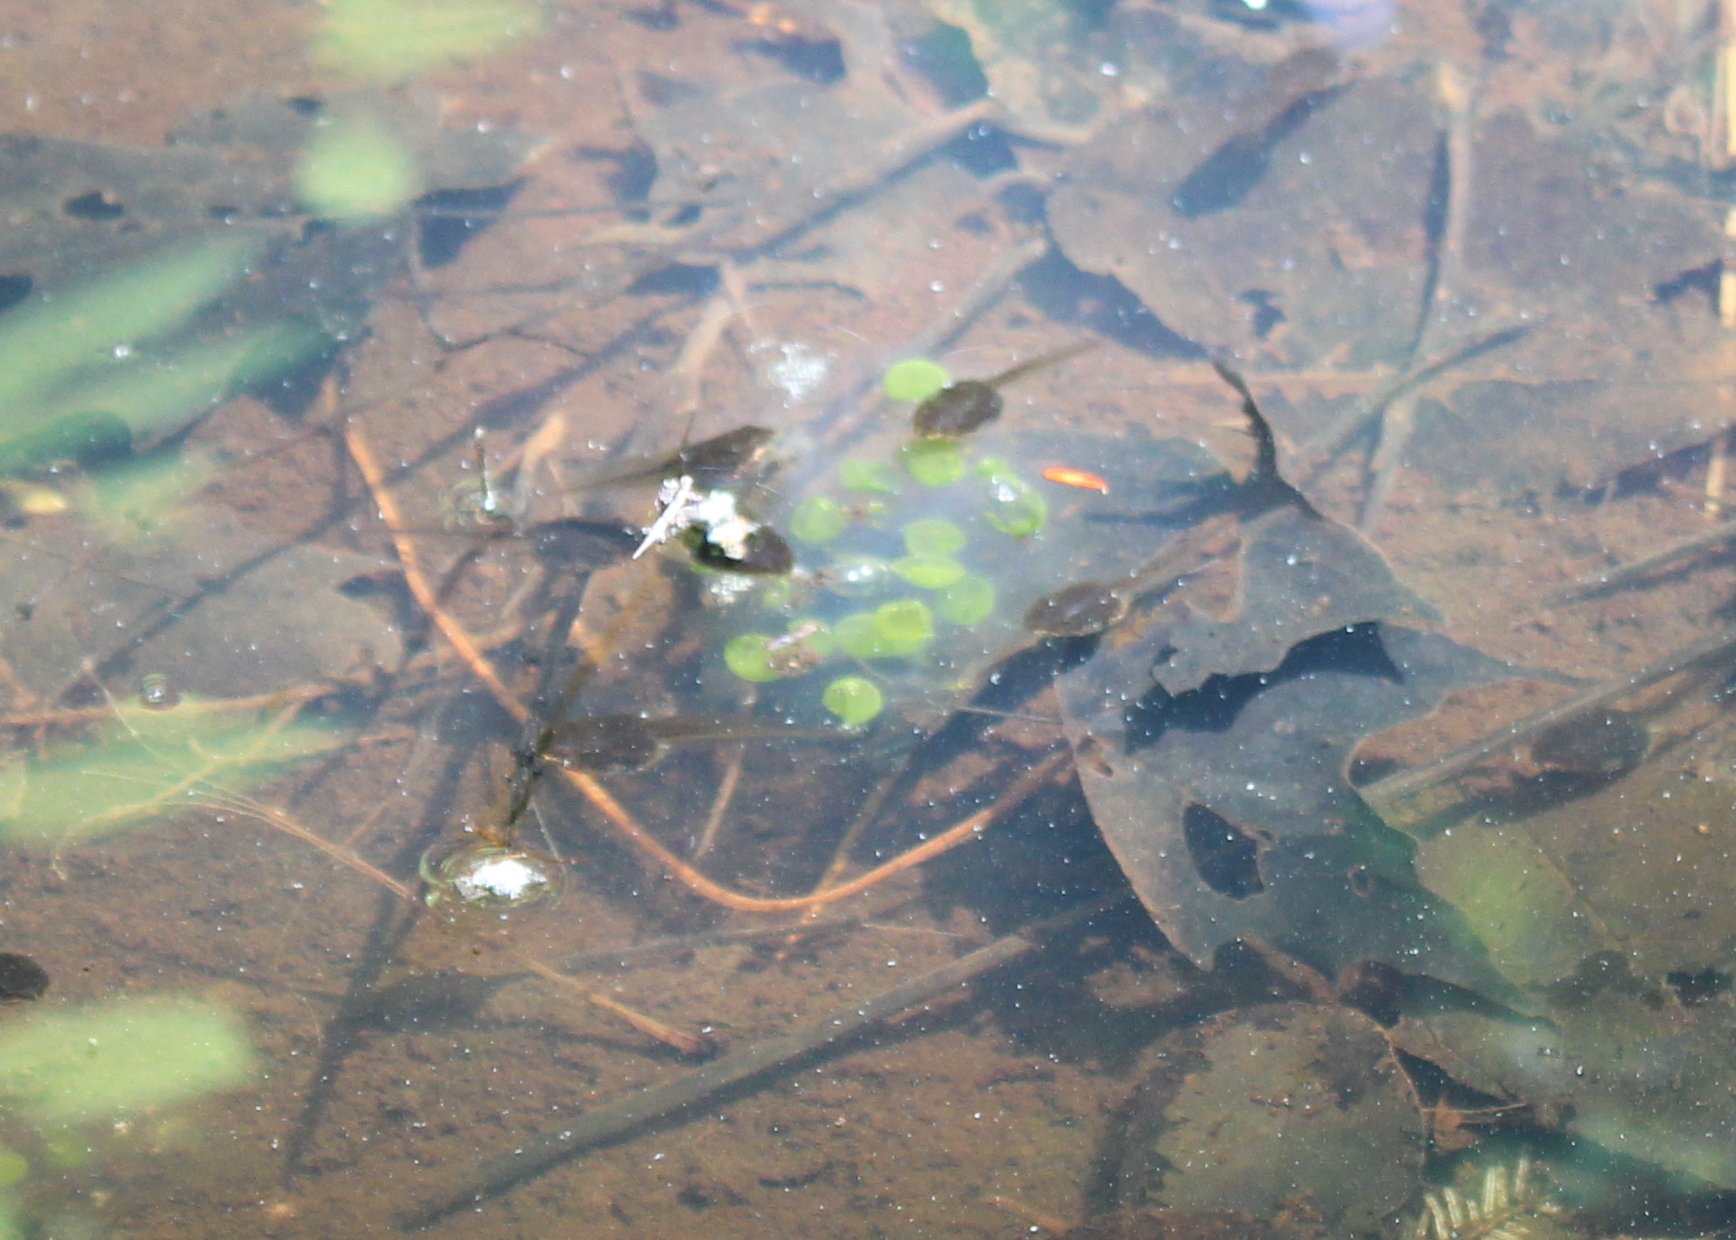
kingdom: Animalia
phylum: Chordata
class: Amphibia
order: Caudata
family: Ambystomatidae
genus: Ambystoma
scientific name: Ambystoma maculatum
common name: Spotted salamander
